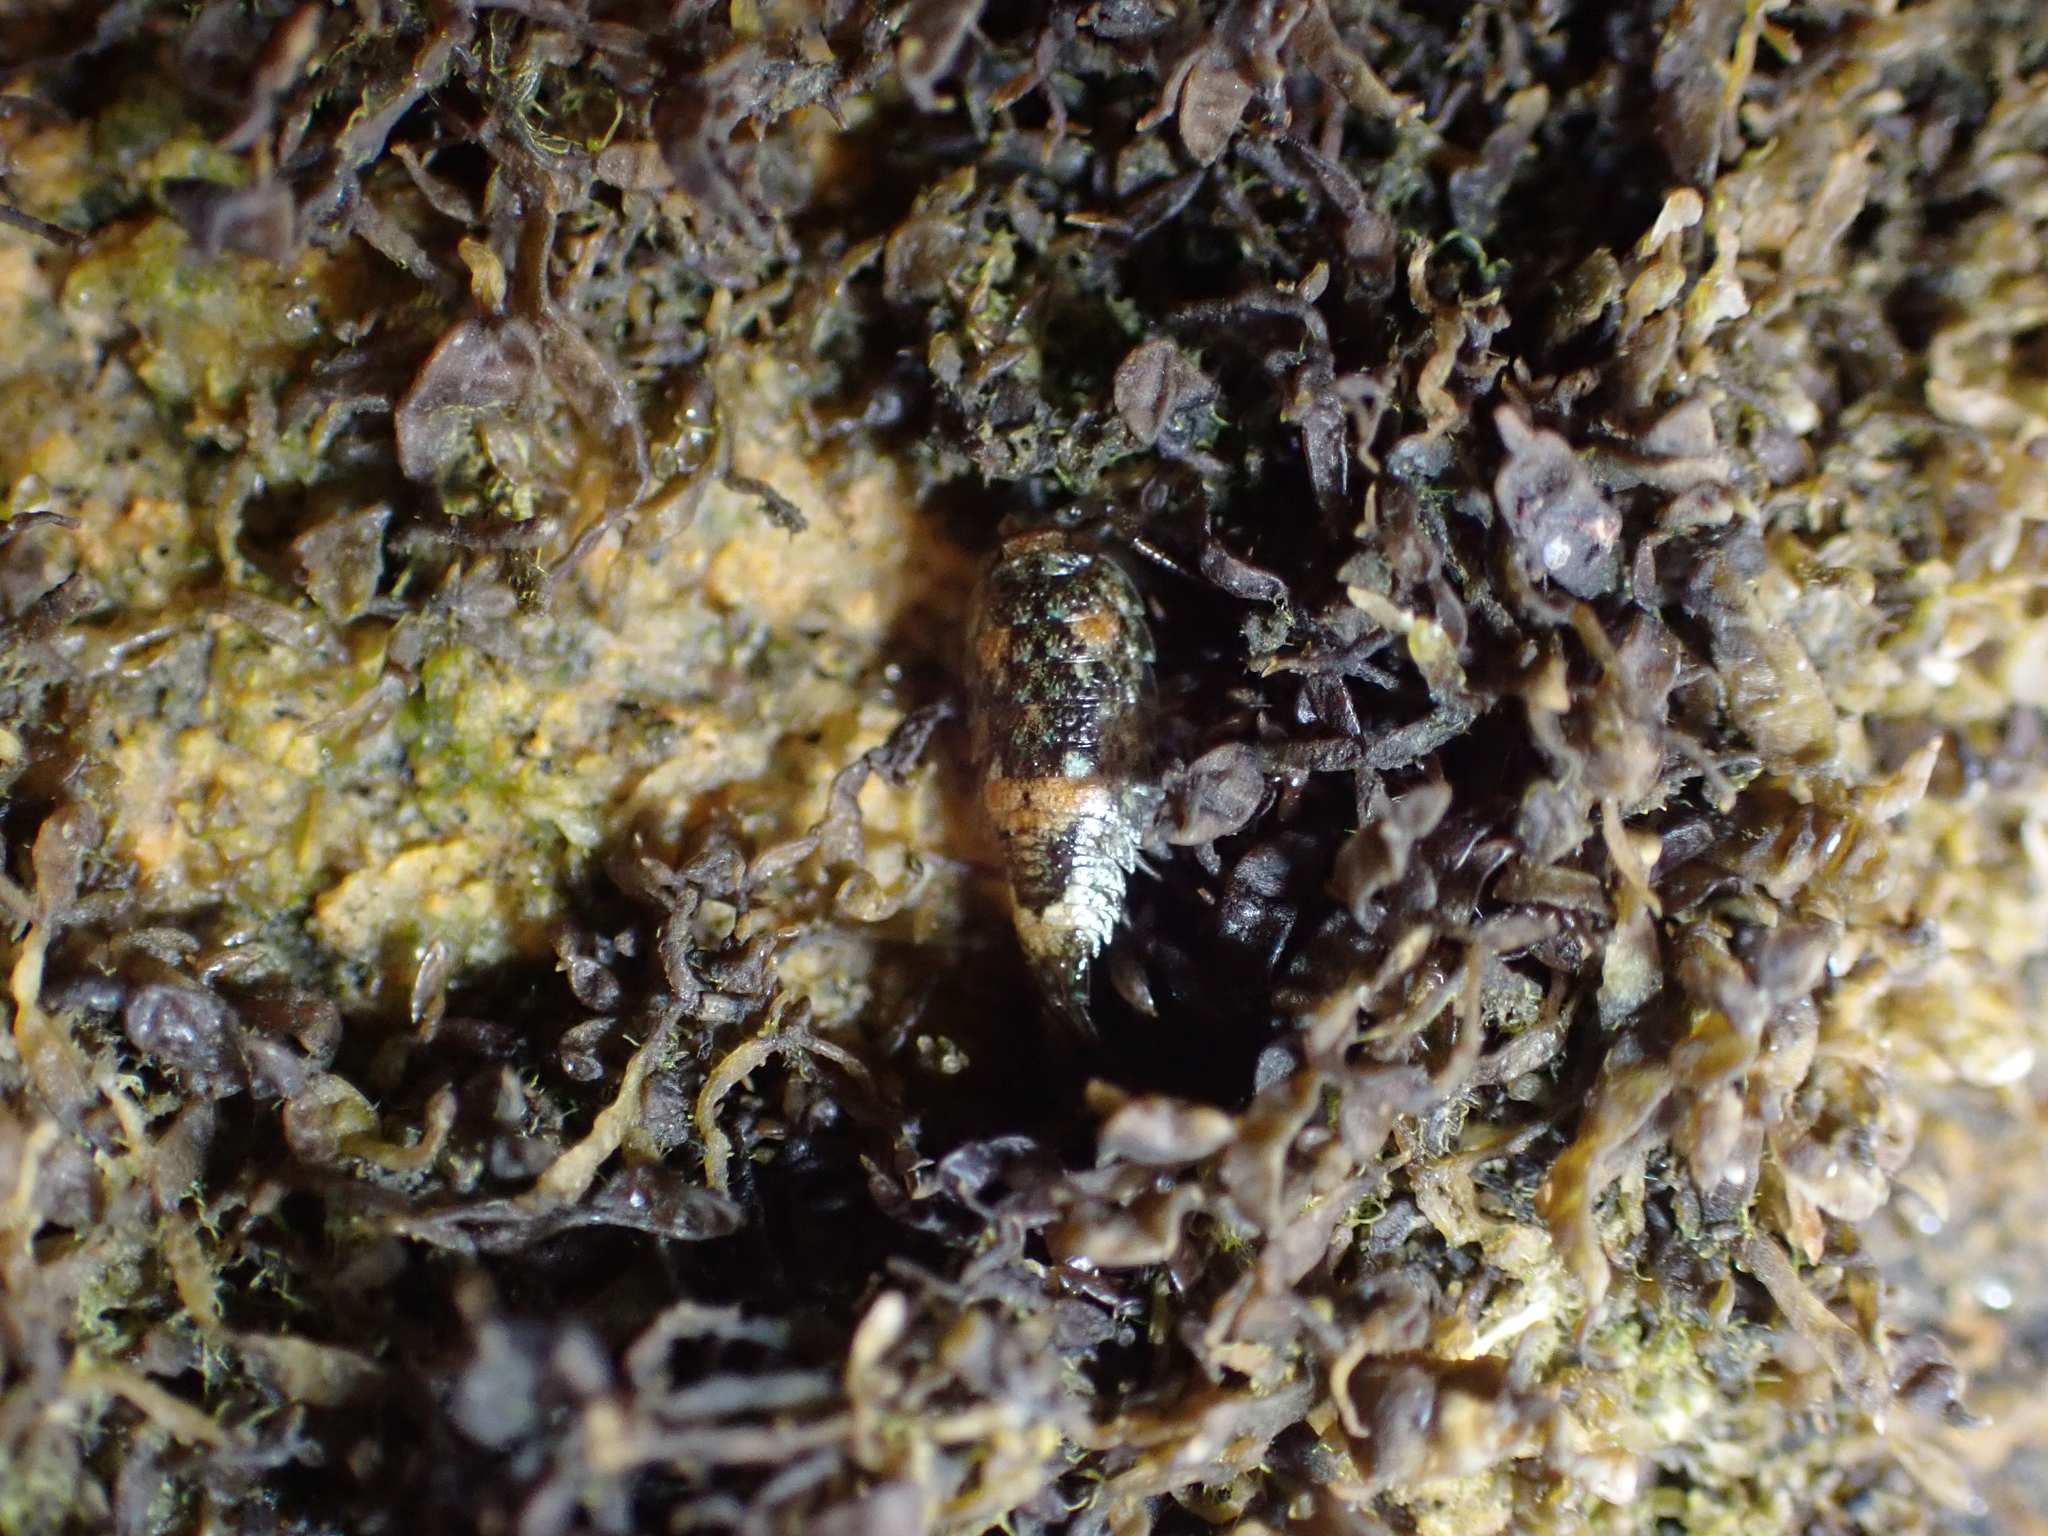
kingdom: Animalia
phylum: Arthropoda
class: Malacostraca
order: Isopoda
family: Ligiidae
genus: Ligia
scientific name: Ligia oceanica
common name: Sea slater
